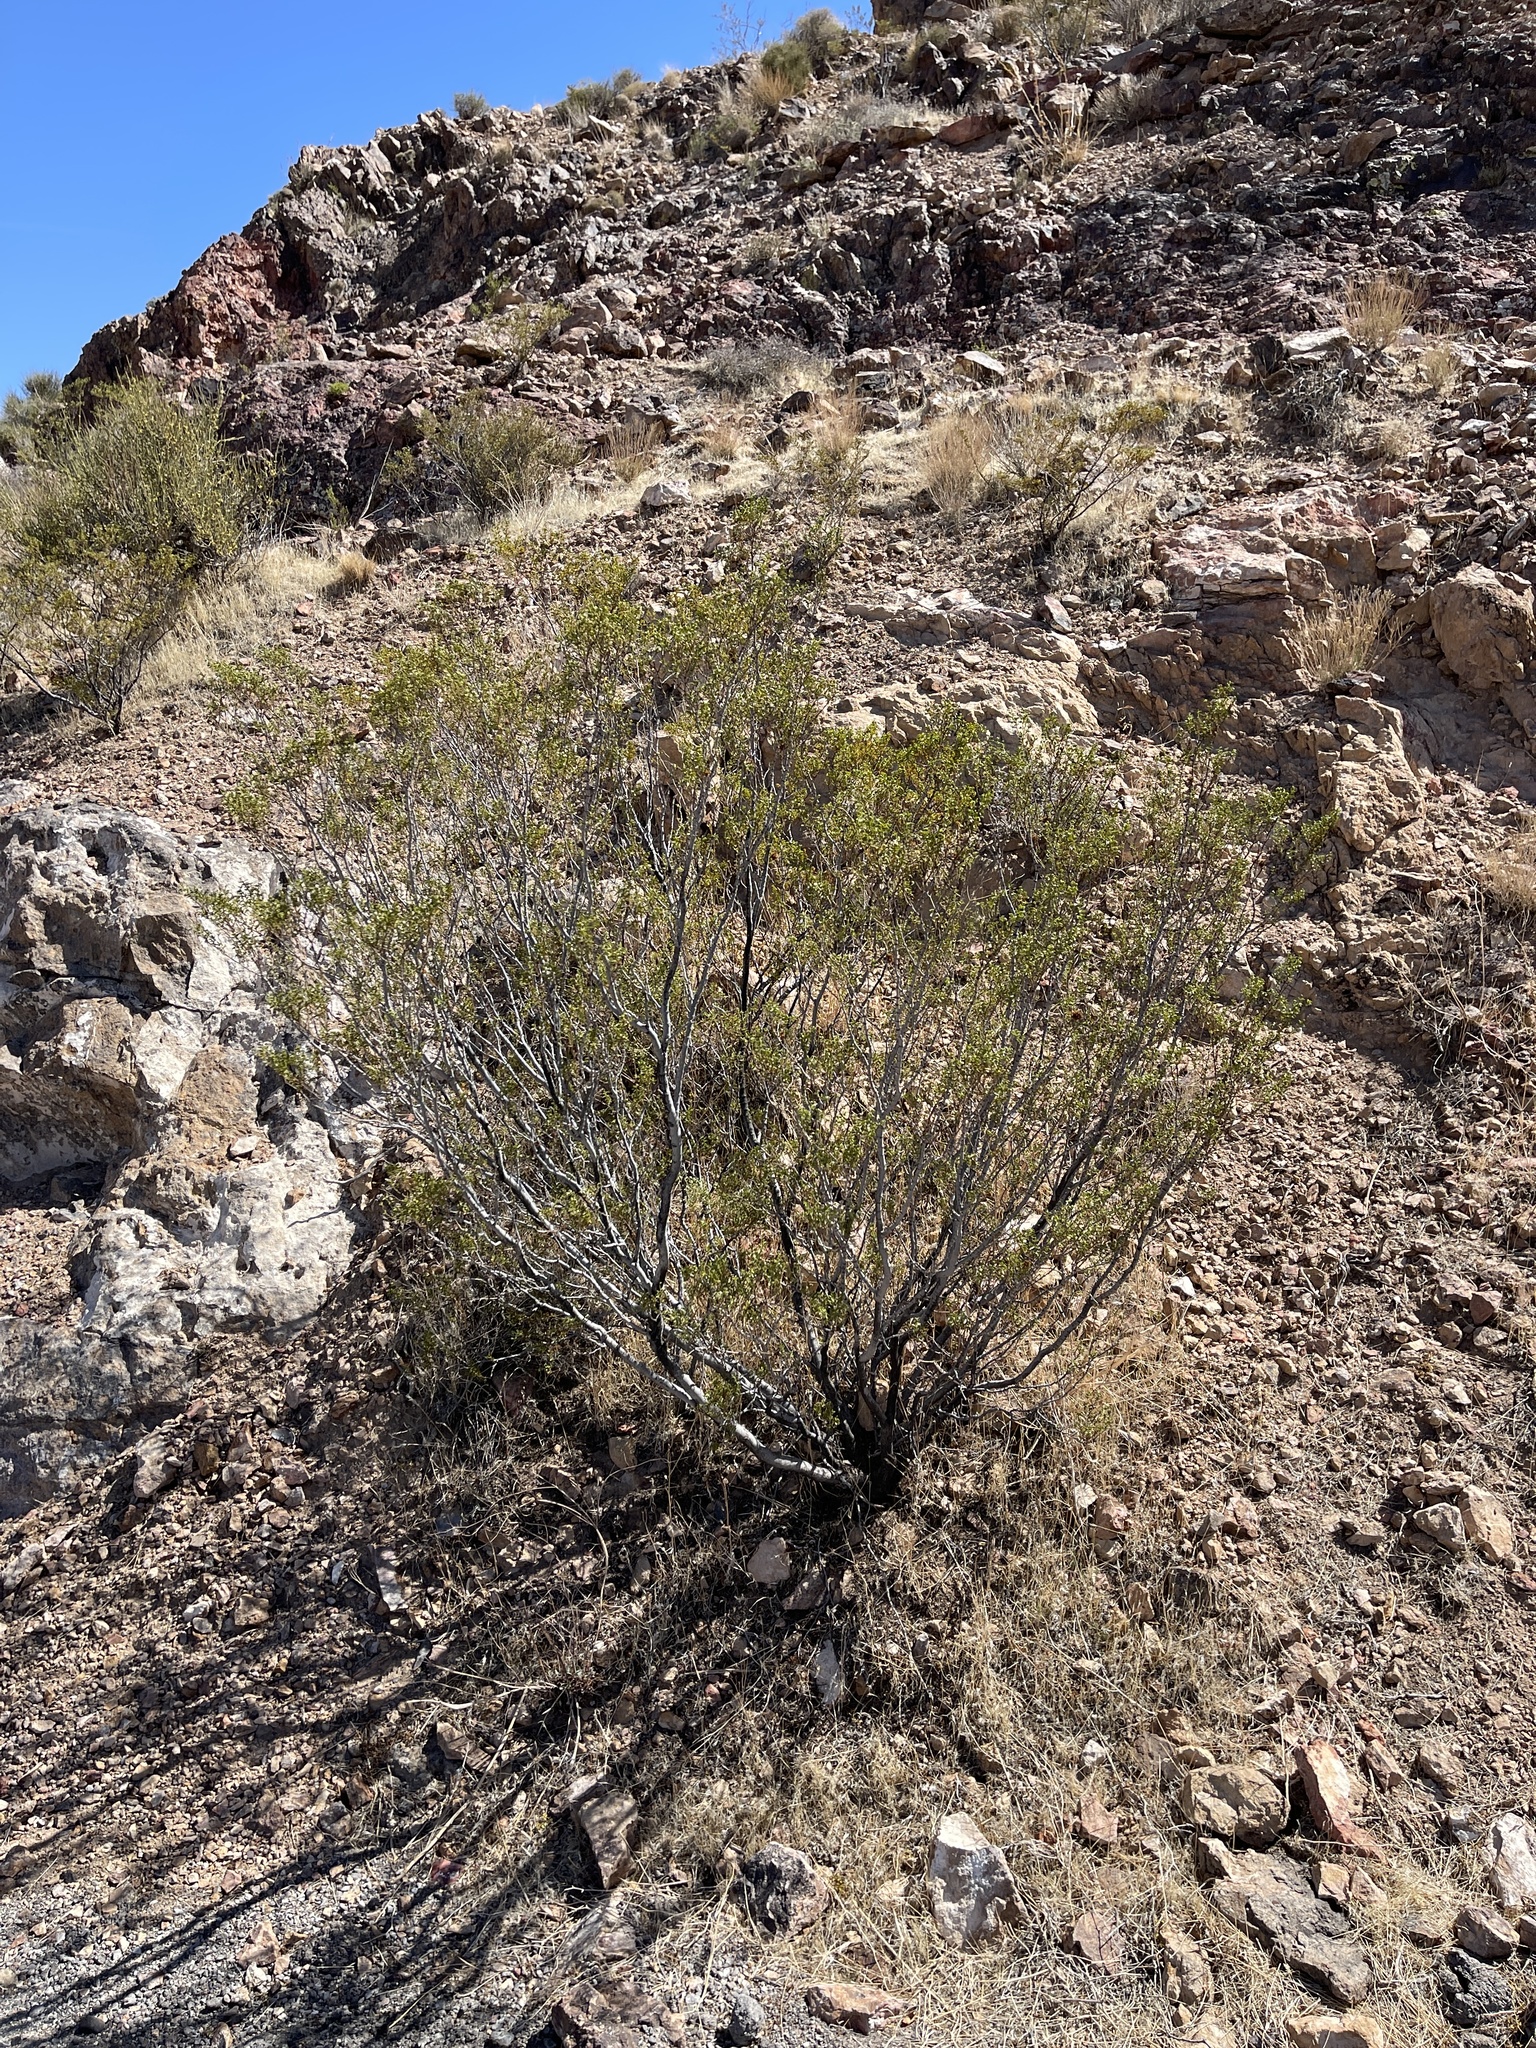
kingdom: Plantae
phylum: Tracheophyta
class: Magnoliopsida
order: Zygophyllales
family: Zygophyllaceae
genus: Larrea
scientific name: Larrea tridentata
